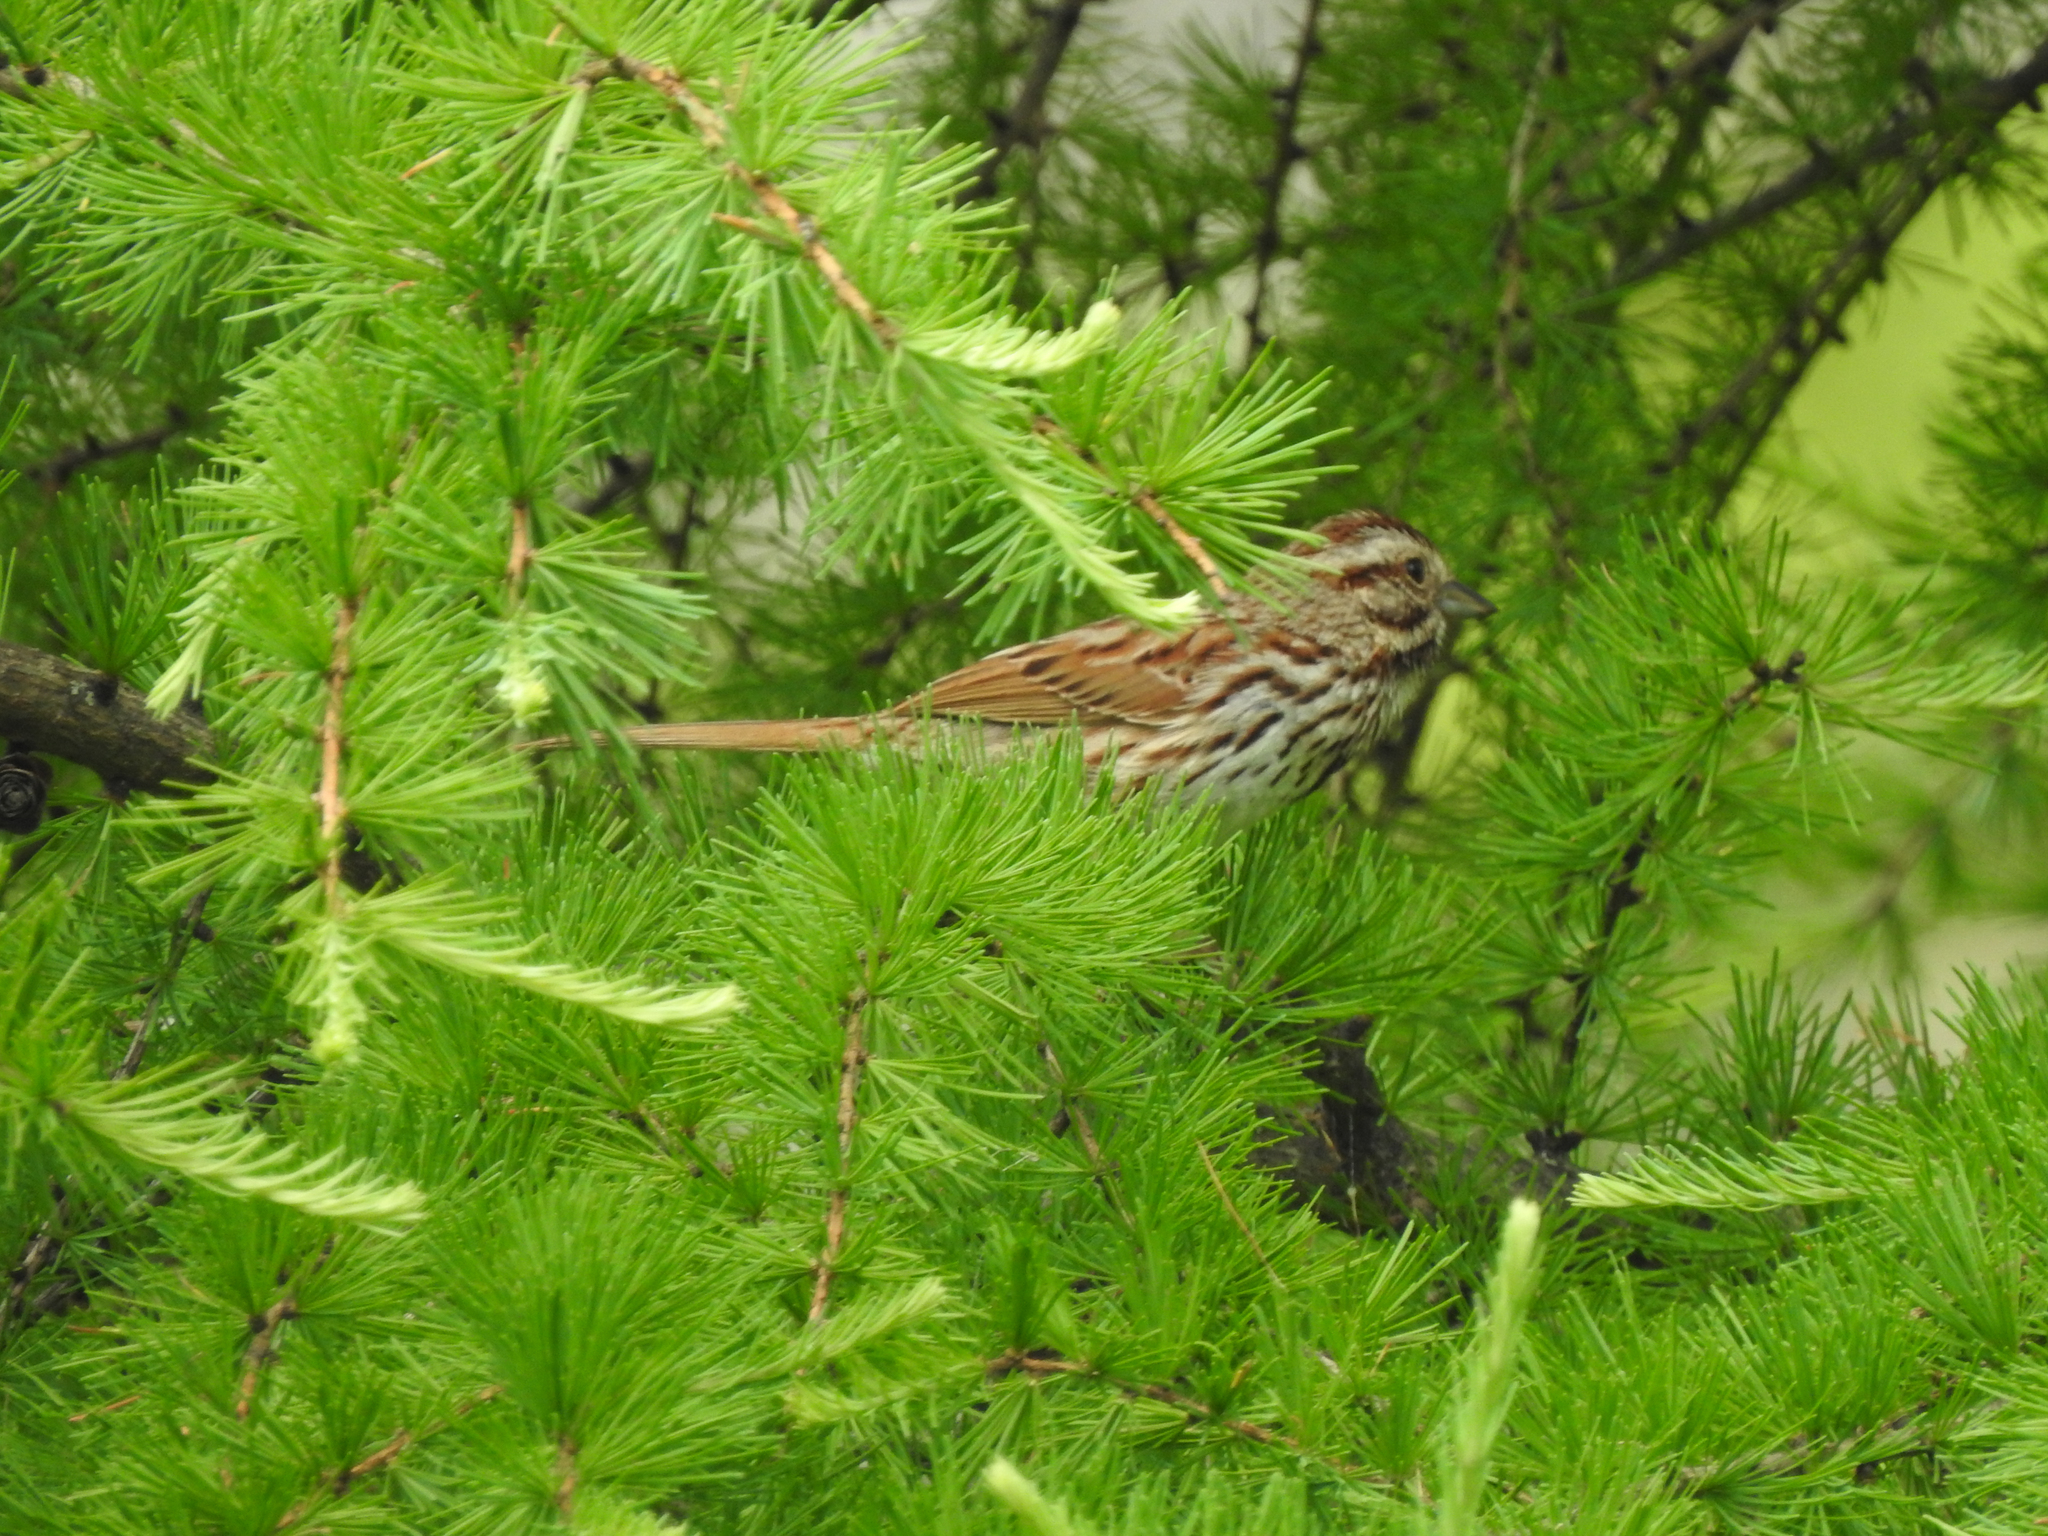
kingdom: Animalia
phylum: Chordata
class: Aves
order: Passeriformes
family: Passerellidae
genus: Melospiza
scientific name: Melospiza melodia
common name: Song sparrow
